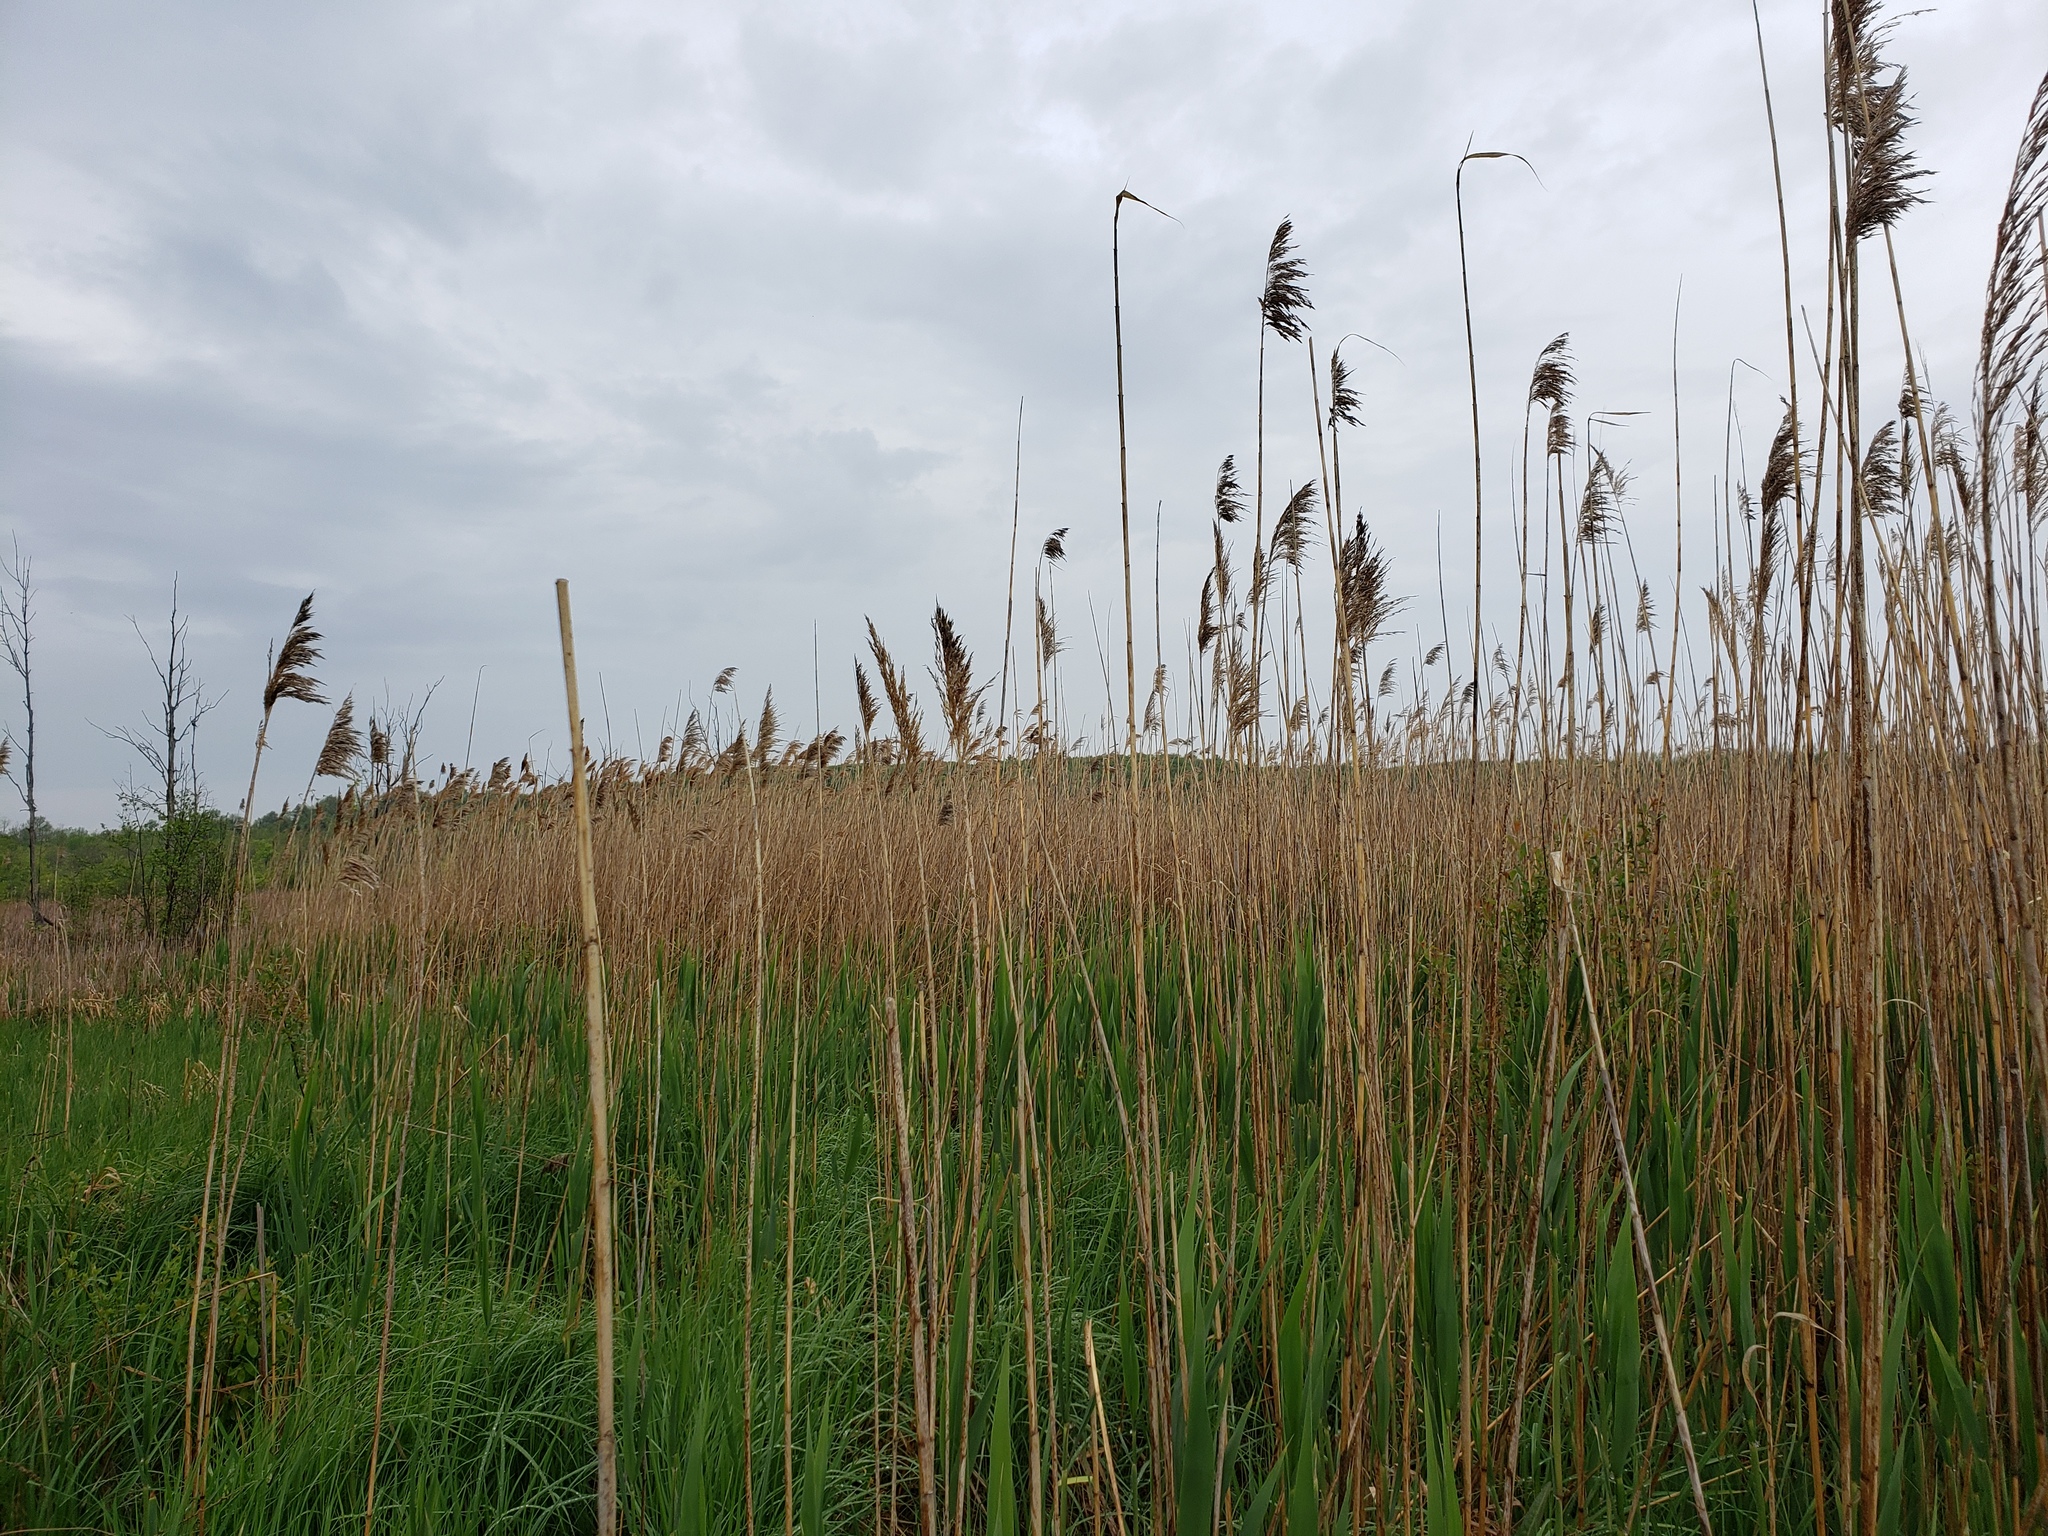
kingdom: Plantae
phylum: Tracheophyta
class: Liliopsida
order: Poales
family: Poaceae
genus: Phragmites
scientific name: Phragmites australis
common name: Common reed
